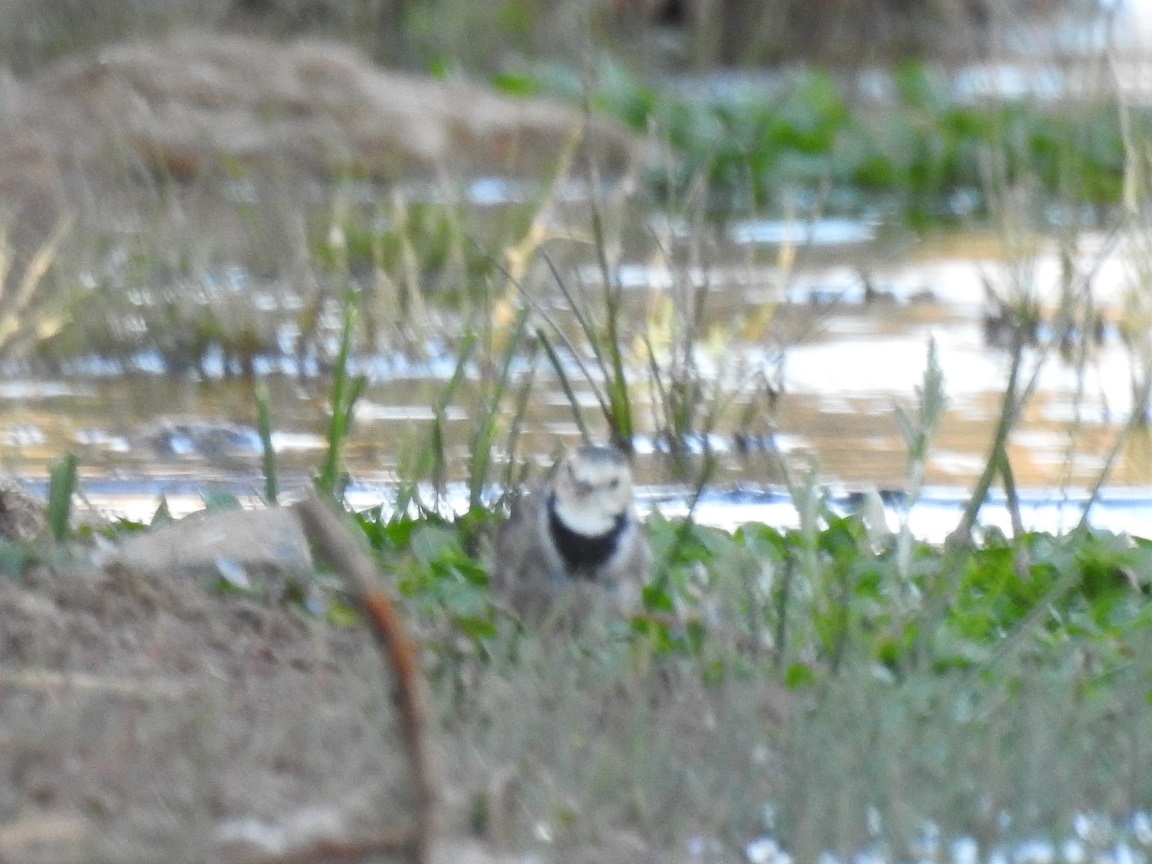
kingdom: Animalia
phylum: Chordata
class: Aves
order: Passeriformes
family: Motacillidae
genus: Motacilla
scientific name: Motacilla alba
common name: White wagtail
